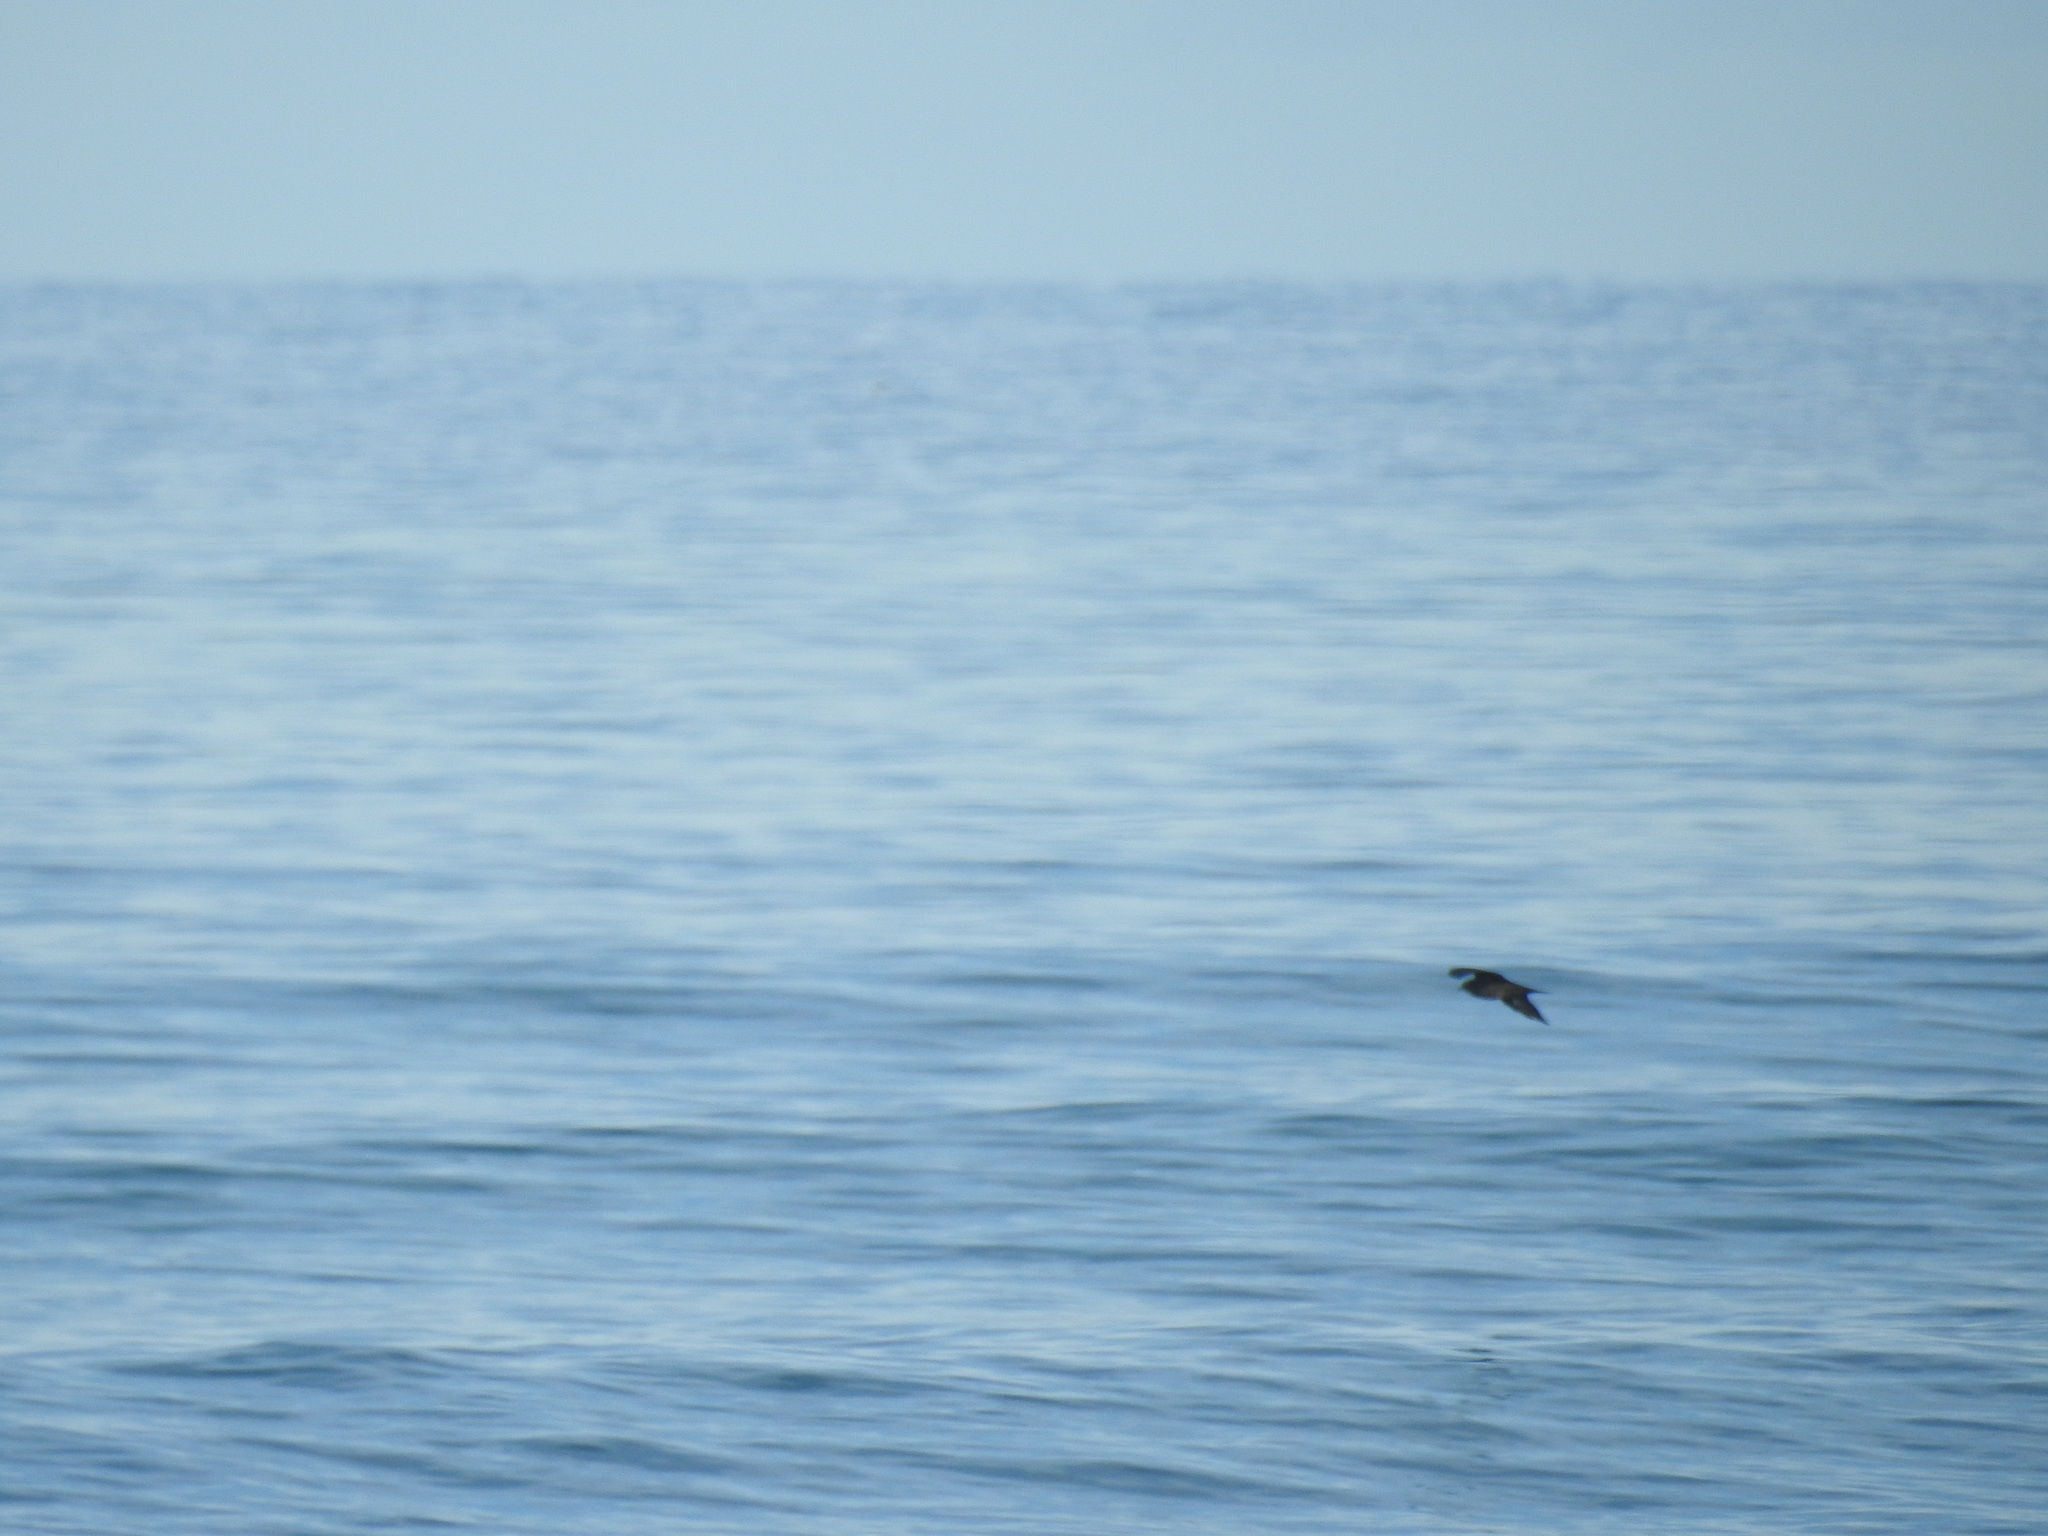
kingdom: Animalia
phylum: Chordata
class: Aves
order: Charadriiformes
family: Stercorariidae
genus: Stercorarius
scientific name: Stercorarius parasiticus
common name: Parasitic jaeger
